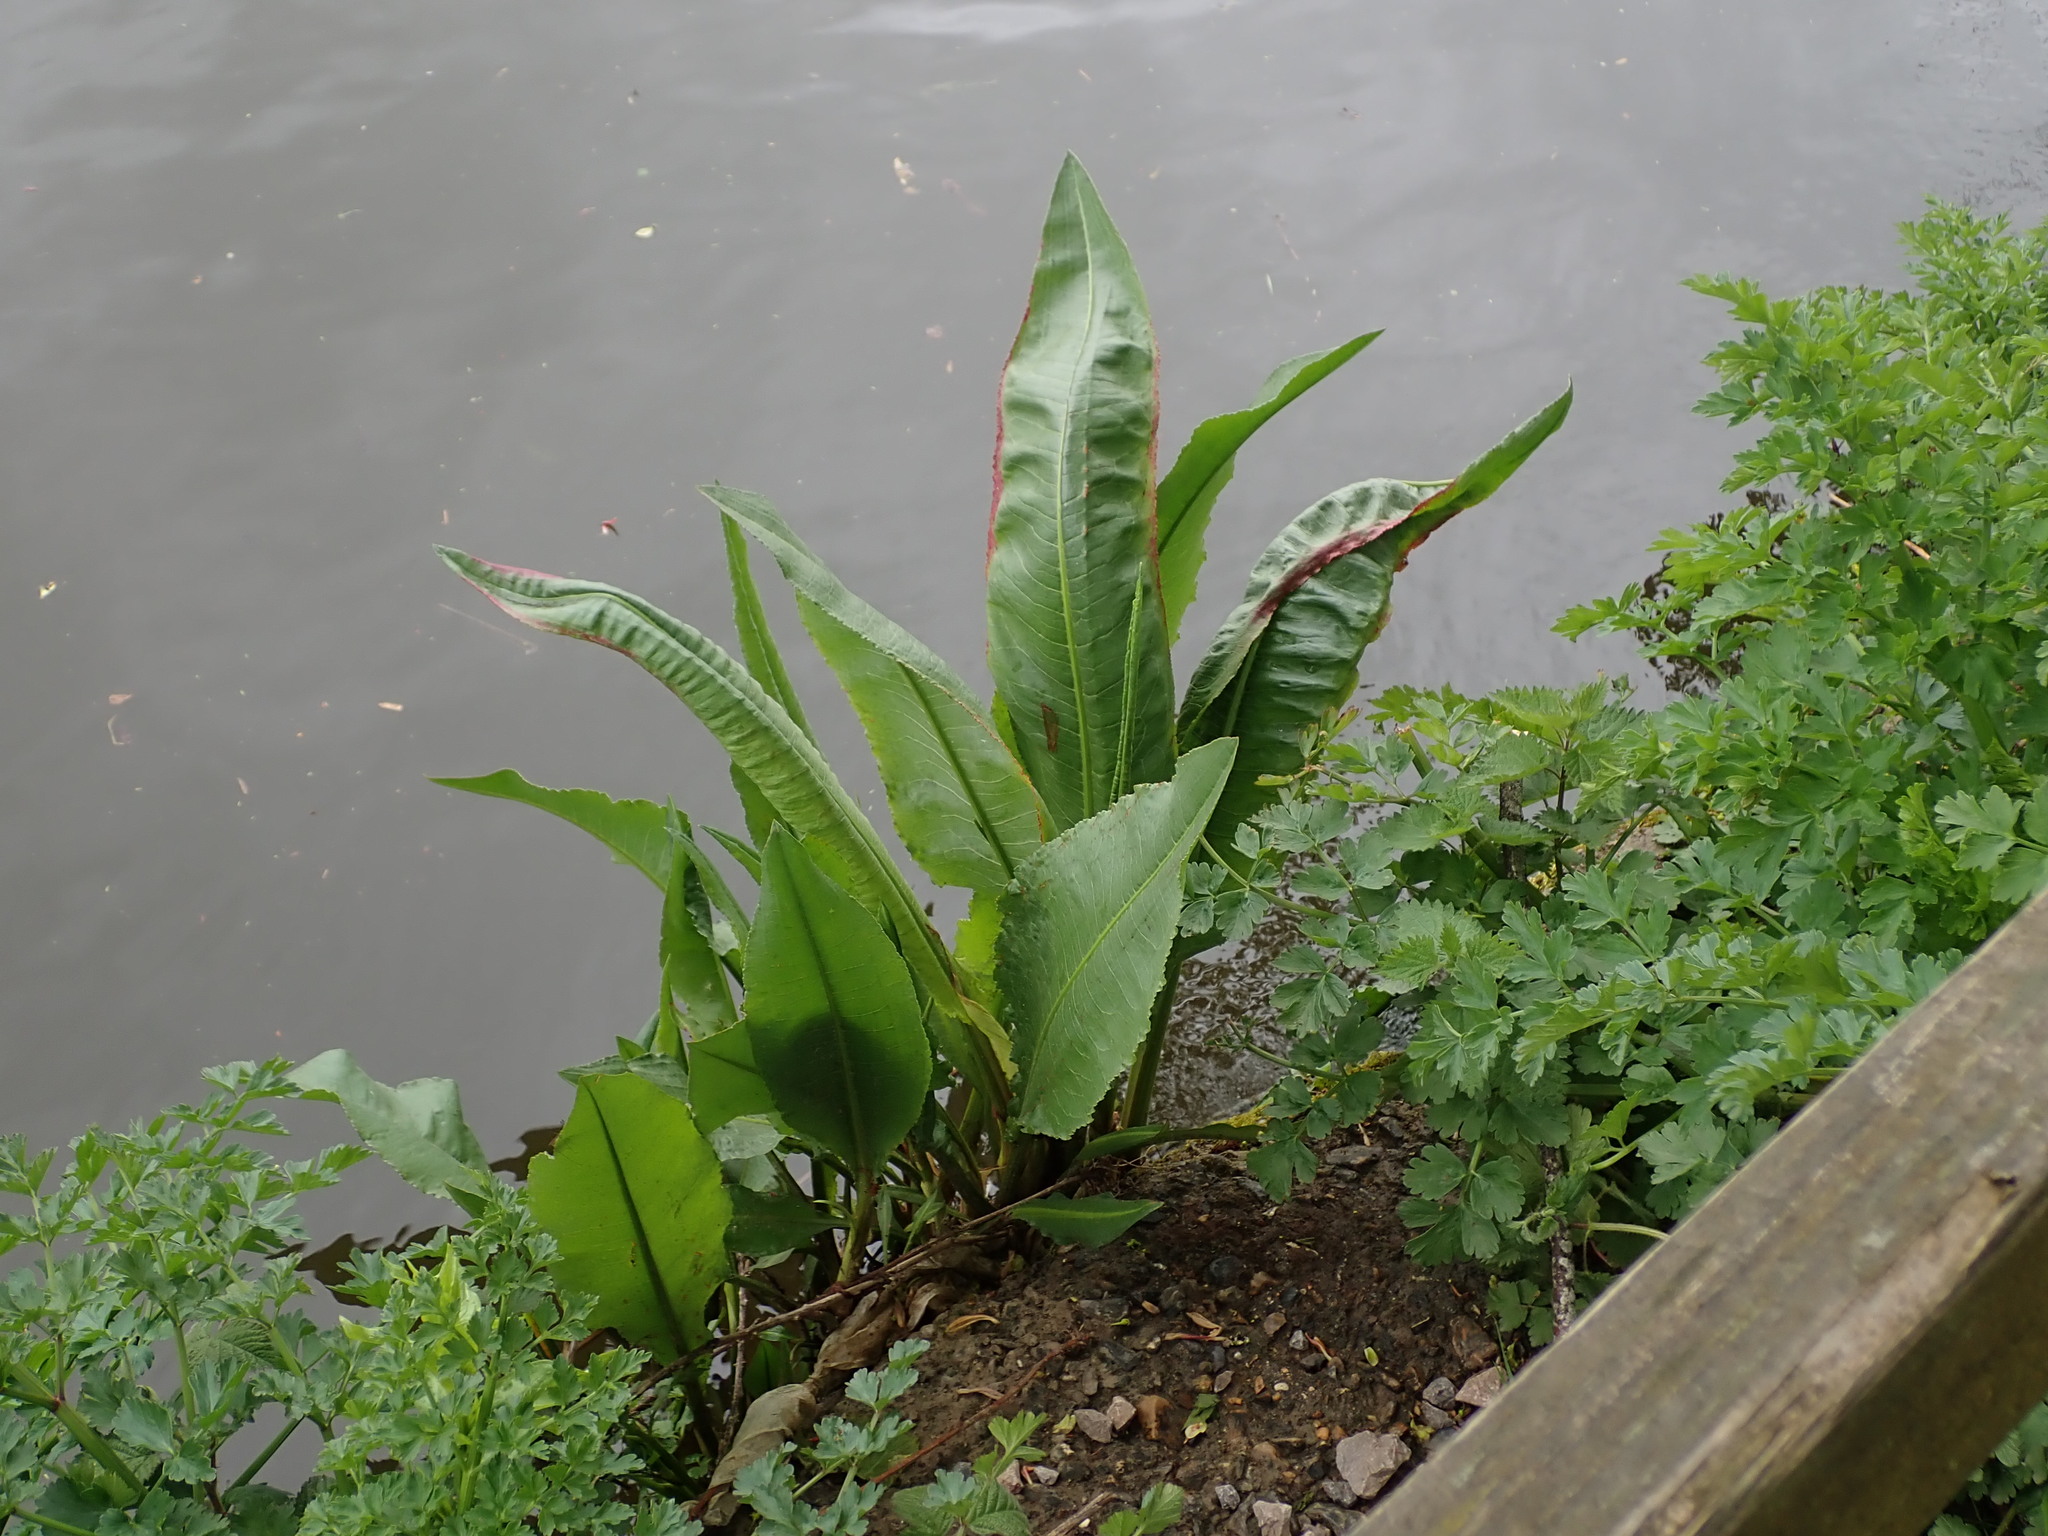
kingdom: Plantae
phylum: Tracheophyta
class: Magnoliopsida
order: Caryophyllales
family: Polygonaceae
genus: Rumex
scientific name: Rumex hydrolapathum
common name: Water dock
